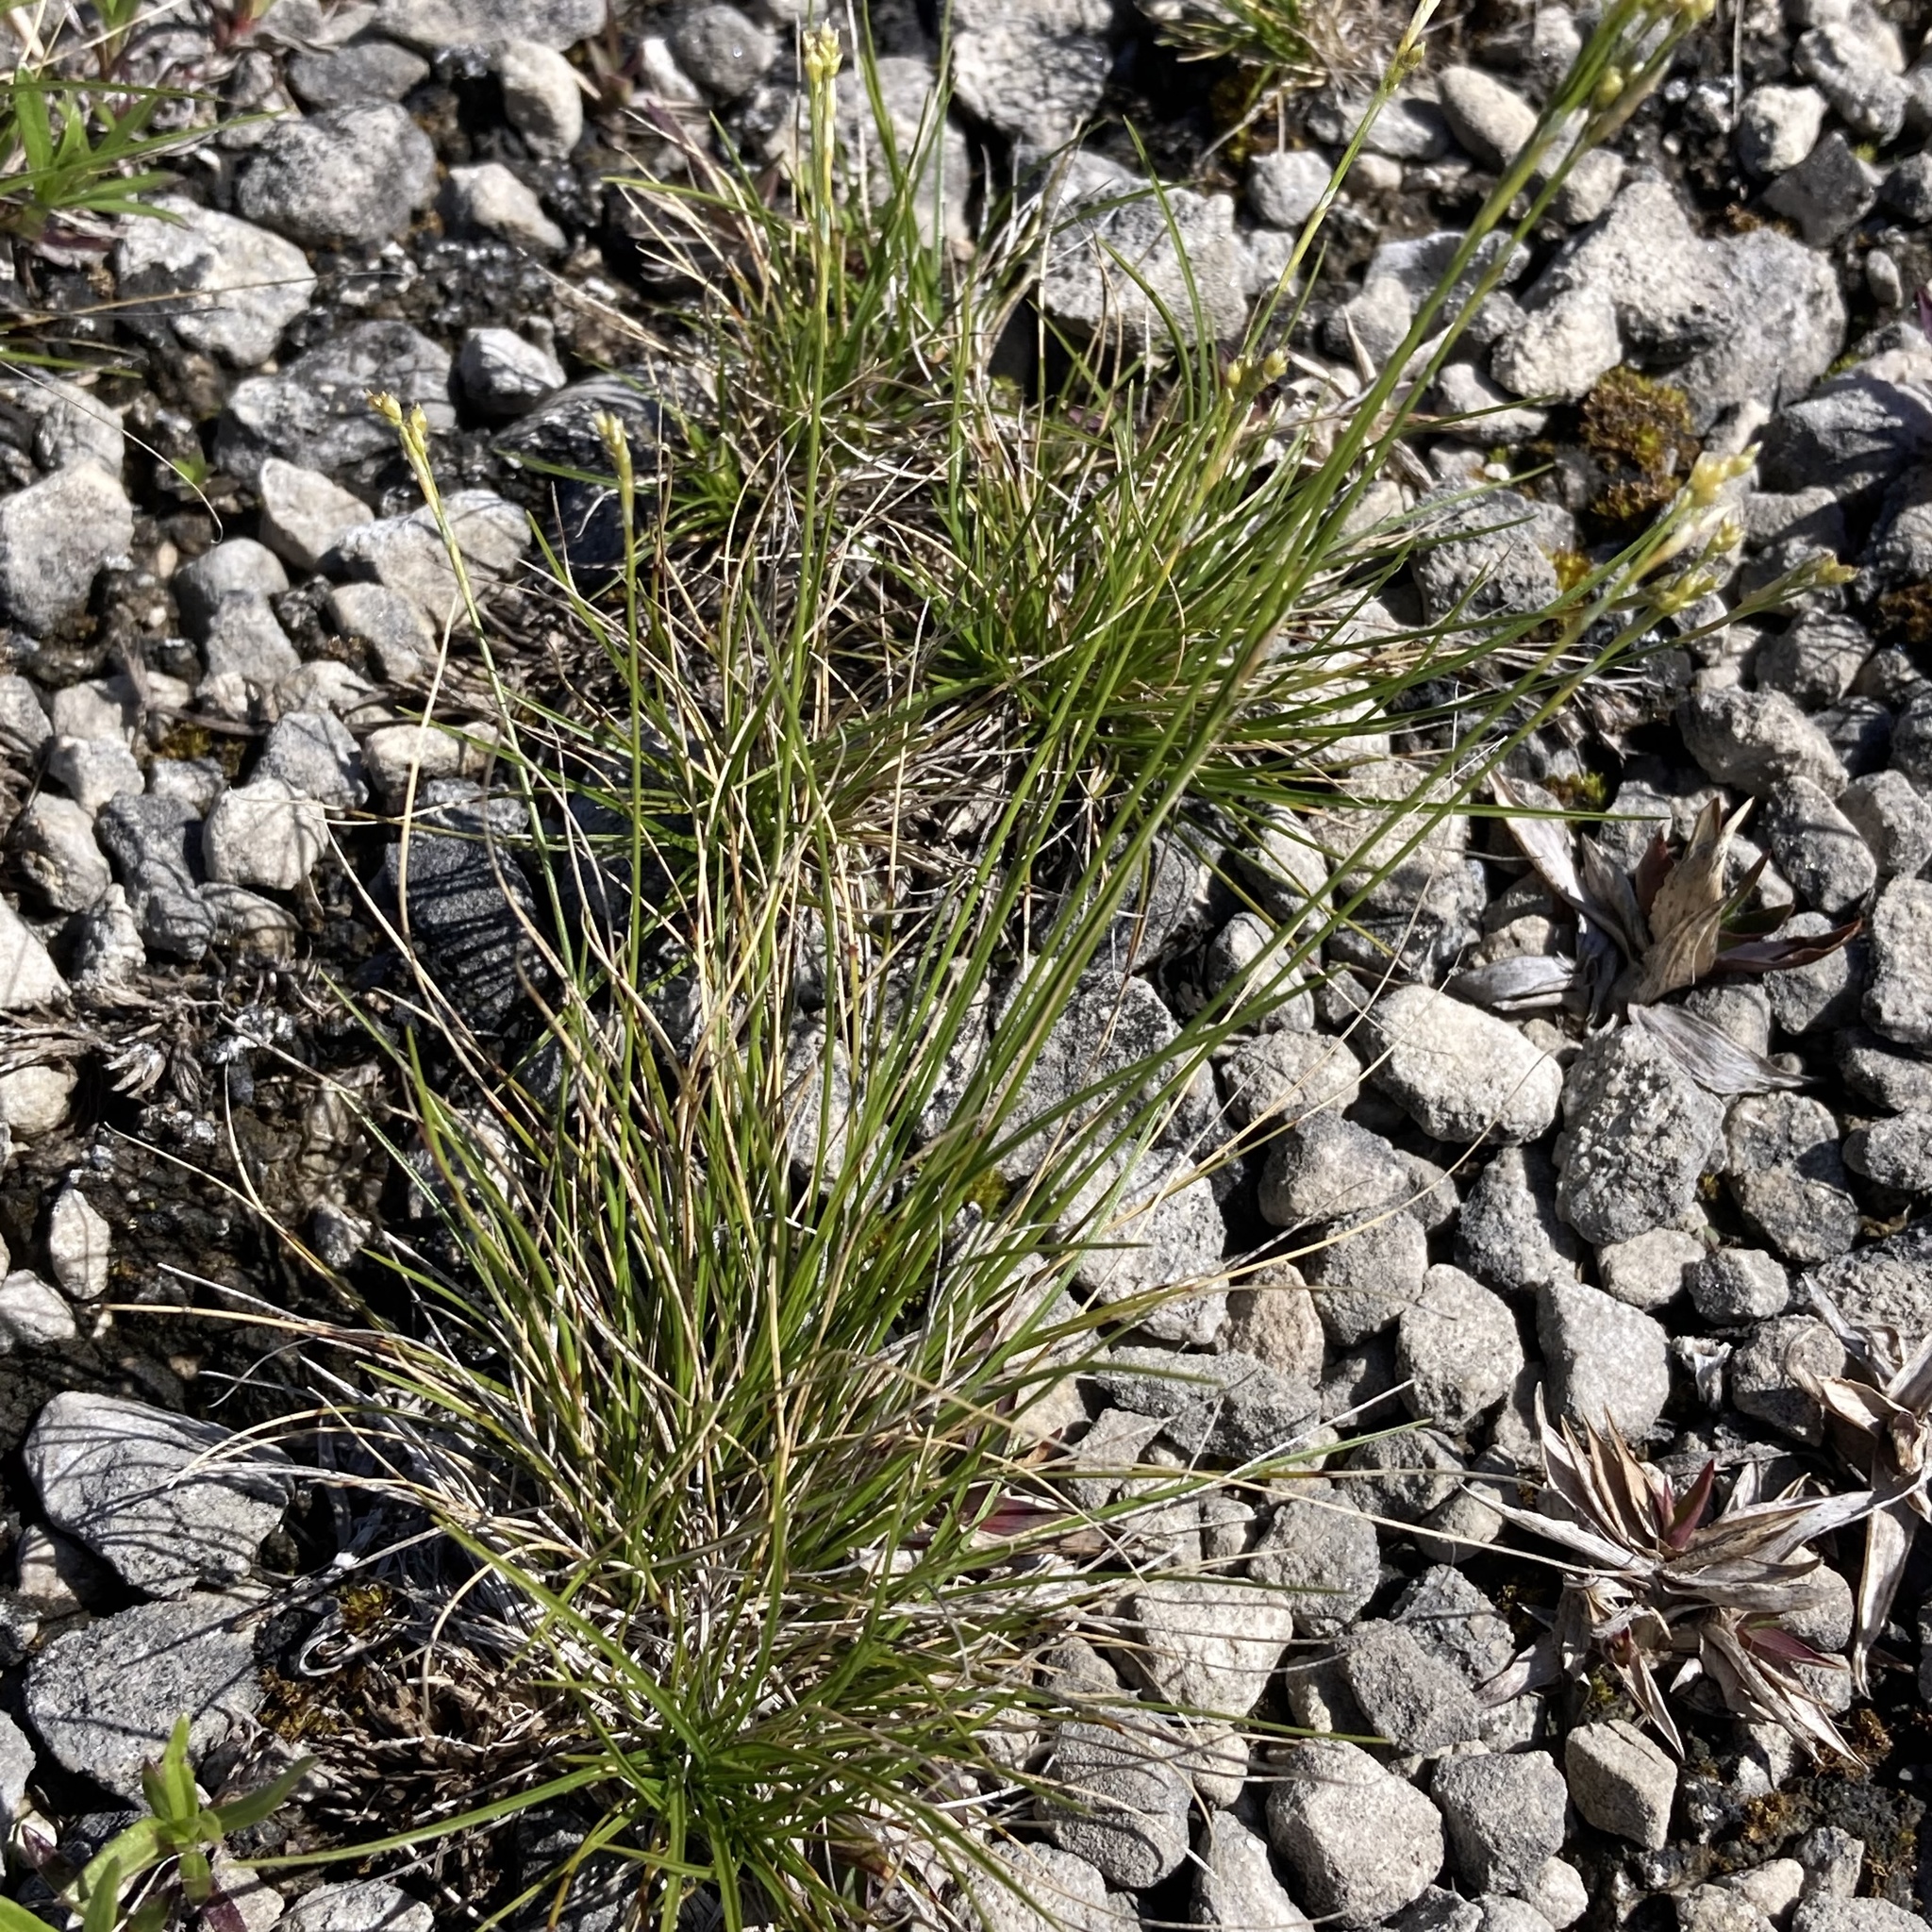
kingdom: Plantae
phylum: Tracheophyta
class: Liliopsida
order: Poales
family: Cyperaceae
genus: Carex
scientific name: Carex eburnea
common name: Bristle-leaved sedge
